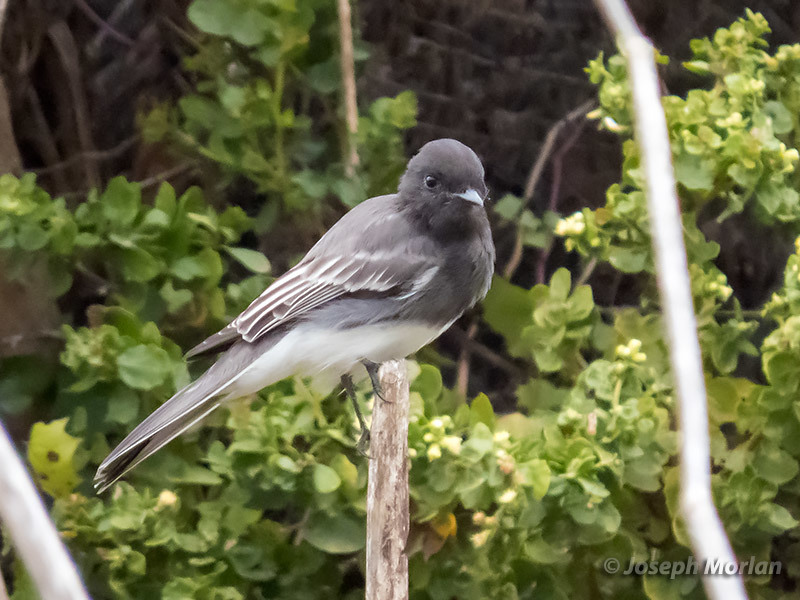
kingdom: Animalia
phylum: Chordata
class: Aves
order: Passeriformes
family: Tyrannidae
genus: Sayornis
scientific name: Sayornis nigricans
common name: Black phoebe
